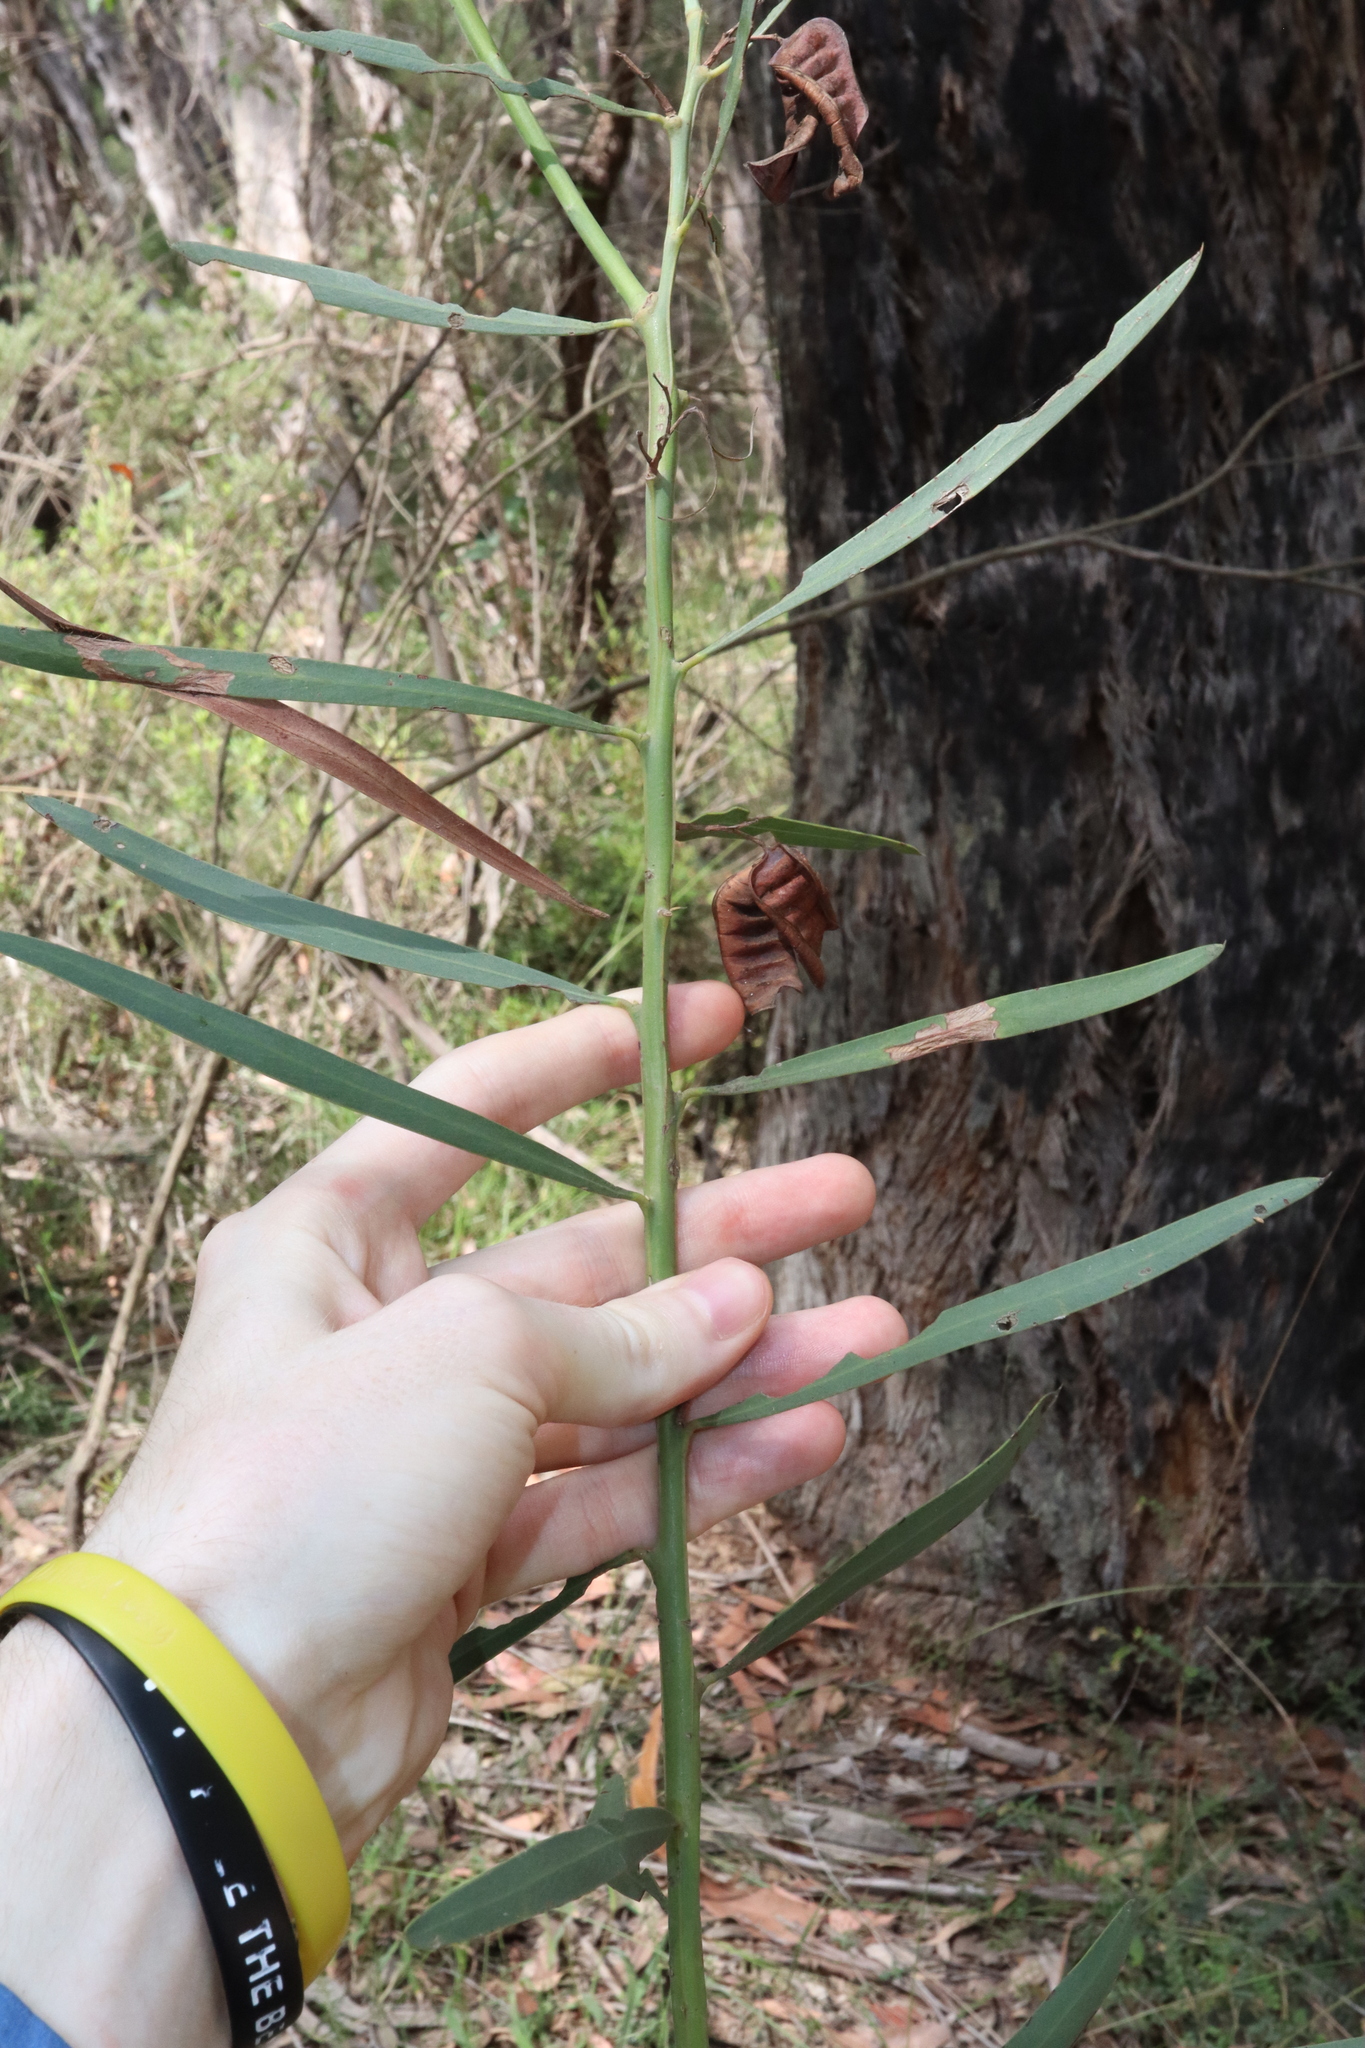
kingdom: Plantae
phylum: Tracheophyta
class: Magnoliopsida
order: Fabales
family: Fabaceae
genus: Acacia
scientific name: Acacia suaveolens
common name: Sweet acacia
